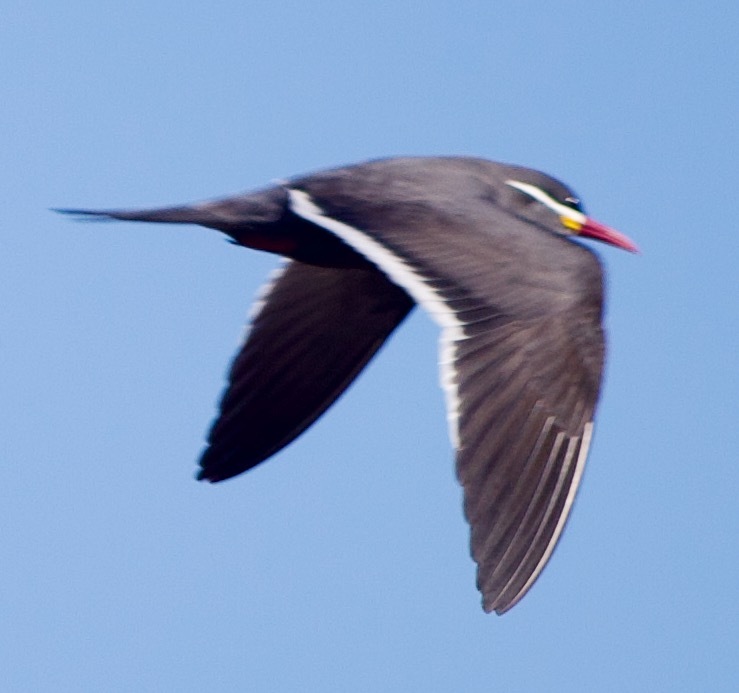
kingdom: Animalia
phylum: Chordata
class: Aves
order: Charadriiformes
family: Laridae
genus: Larosterna
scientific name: Larosterna inca
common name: Inca tern
